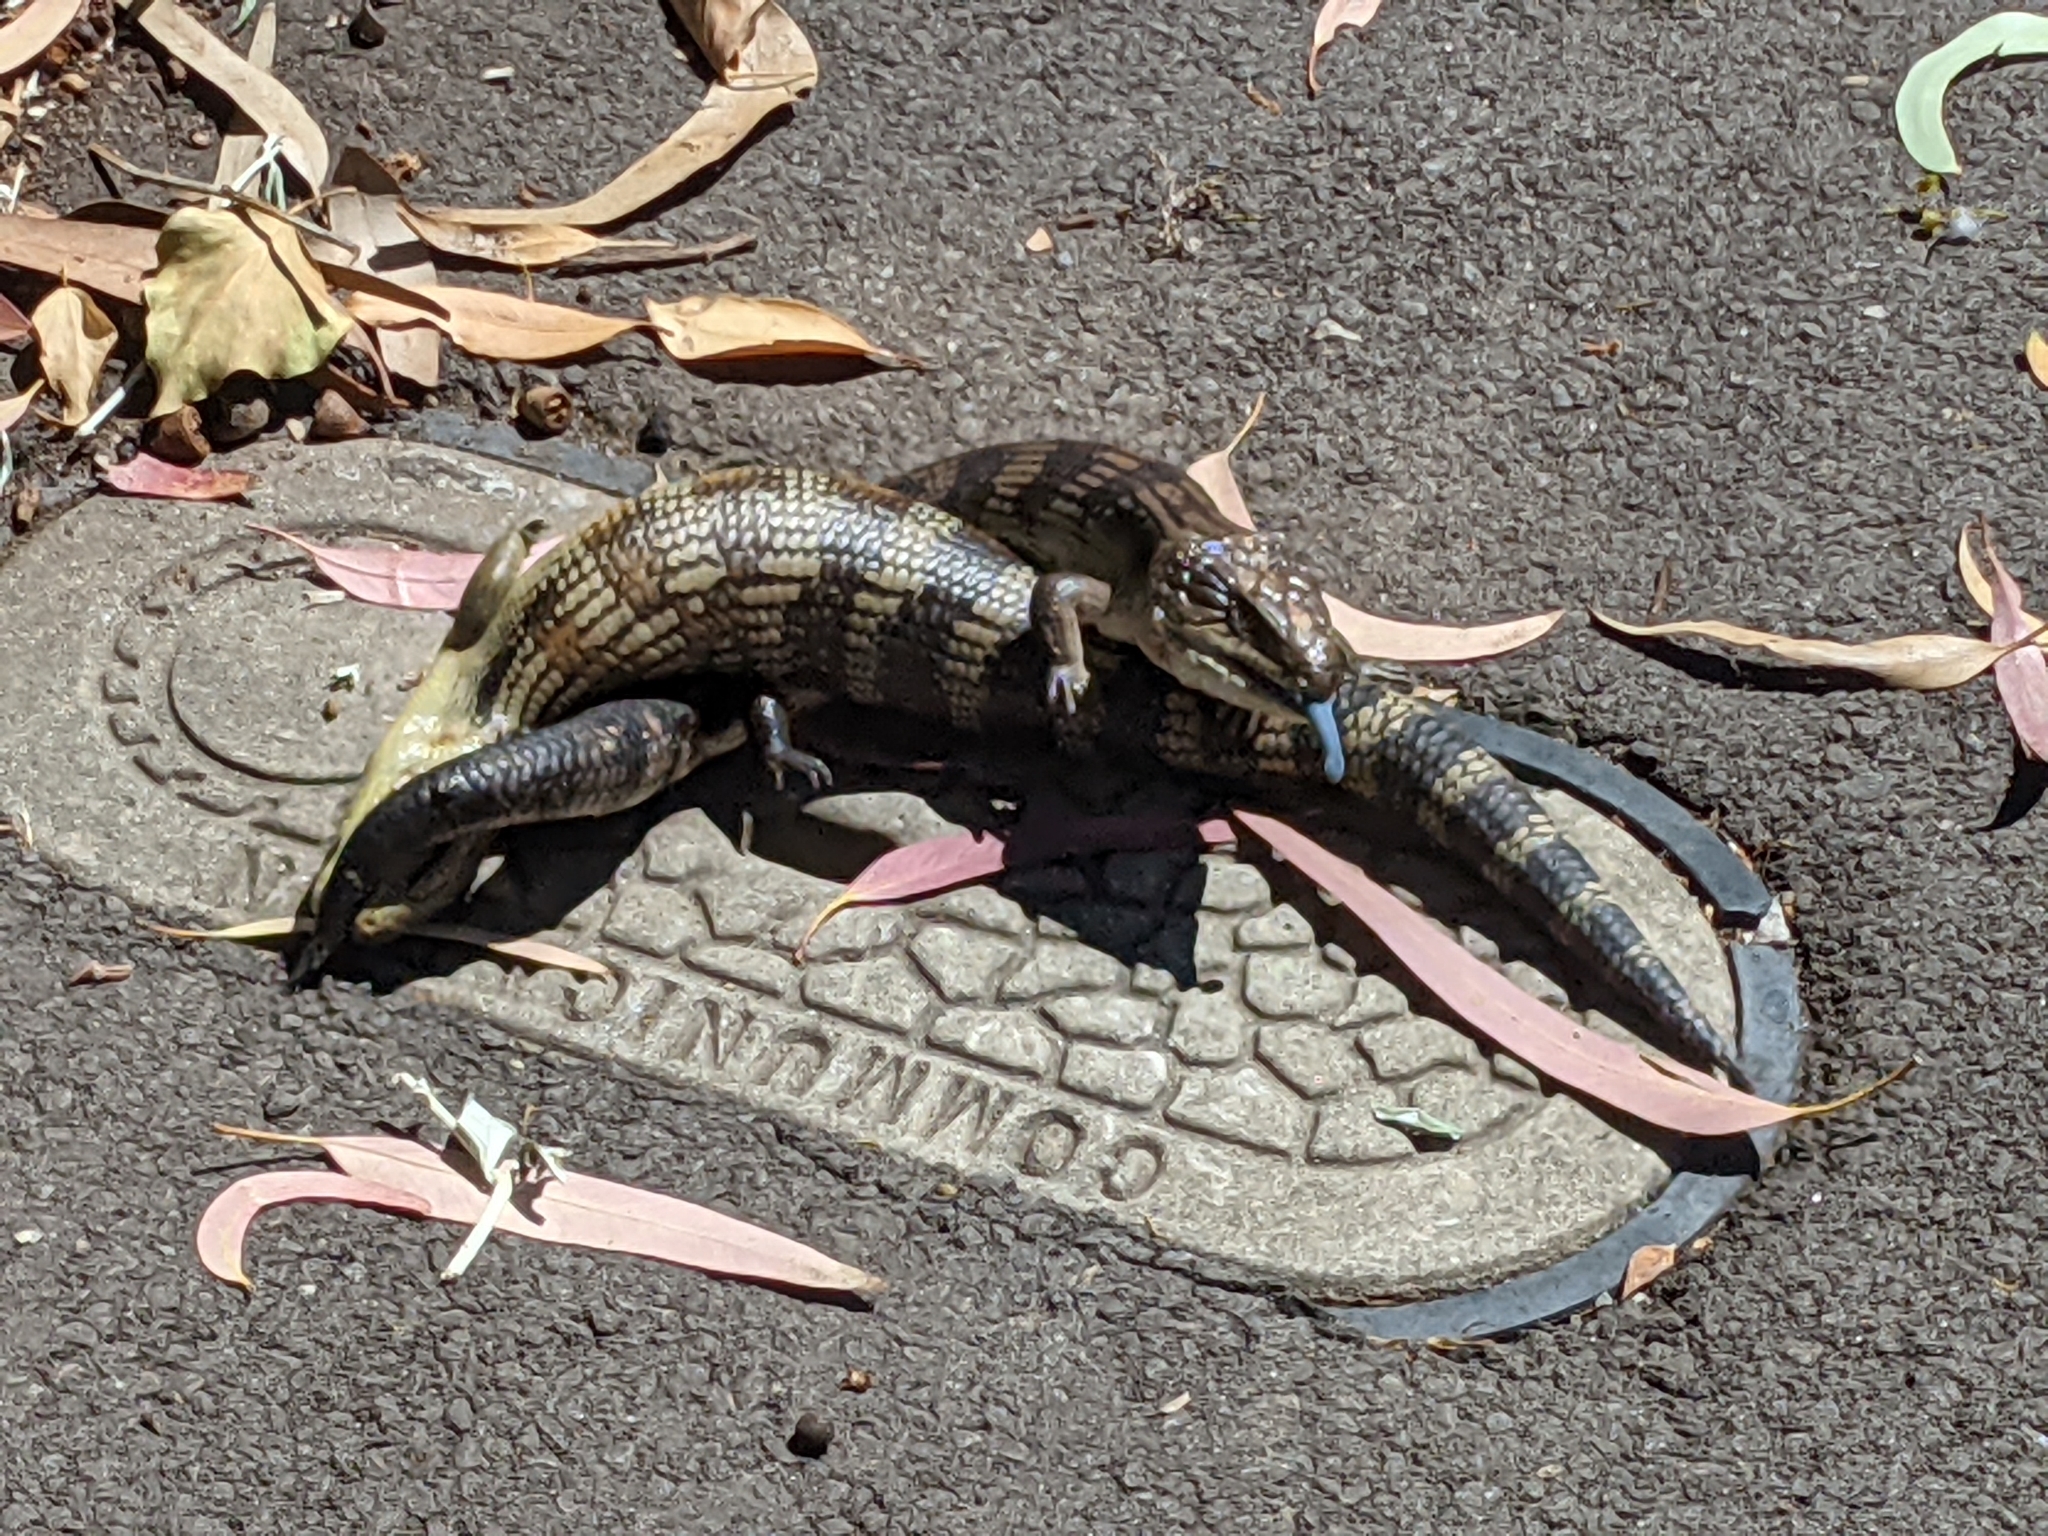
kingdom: Animalia
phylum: Chordata
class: Squamata
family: Scincidae
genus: Tiliqua
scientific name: Tiliqua scincoides
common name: Common bluetongue
